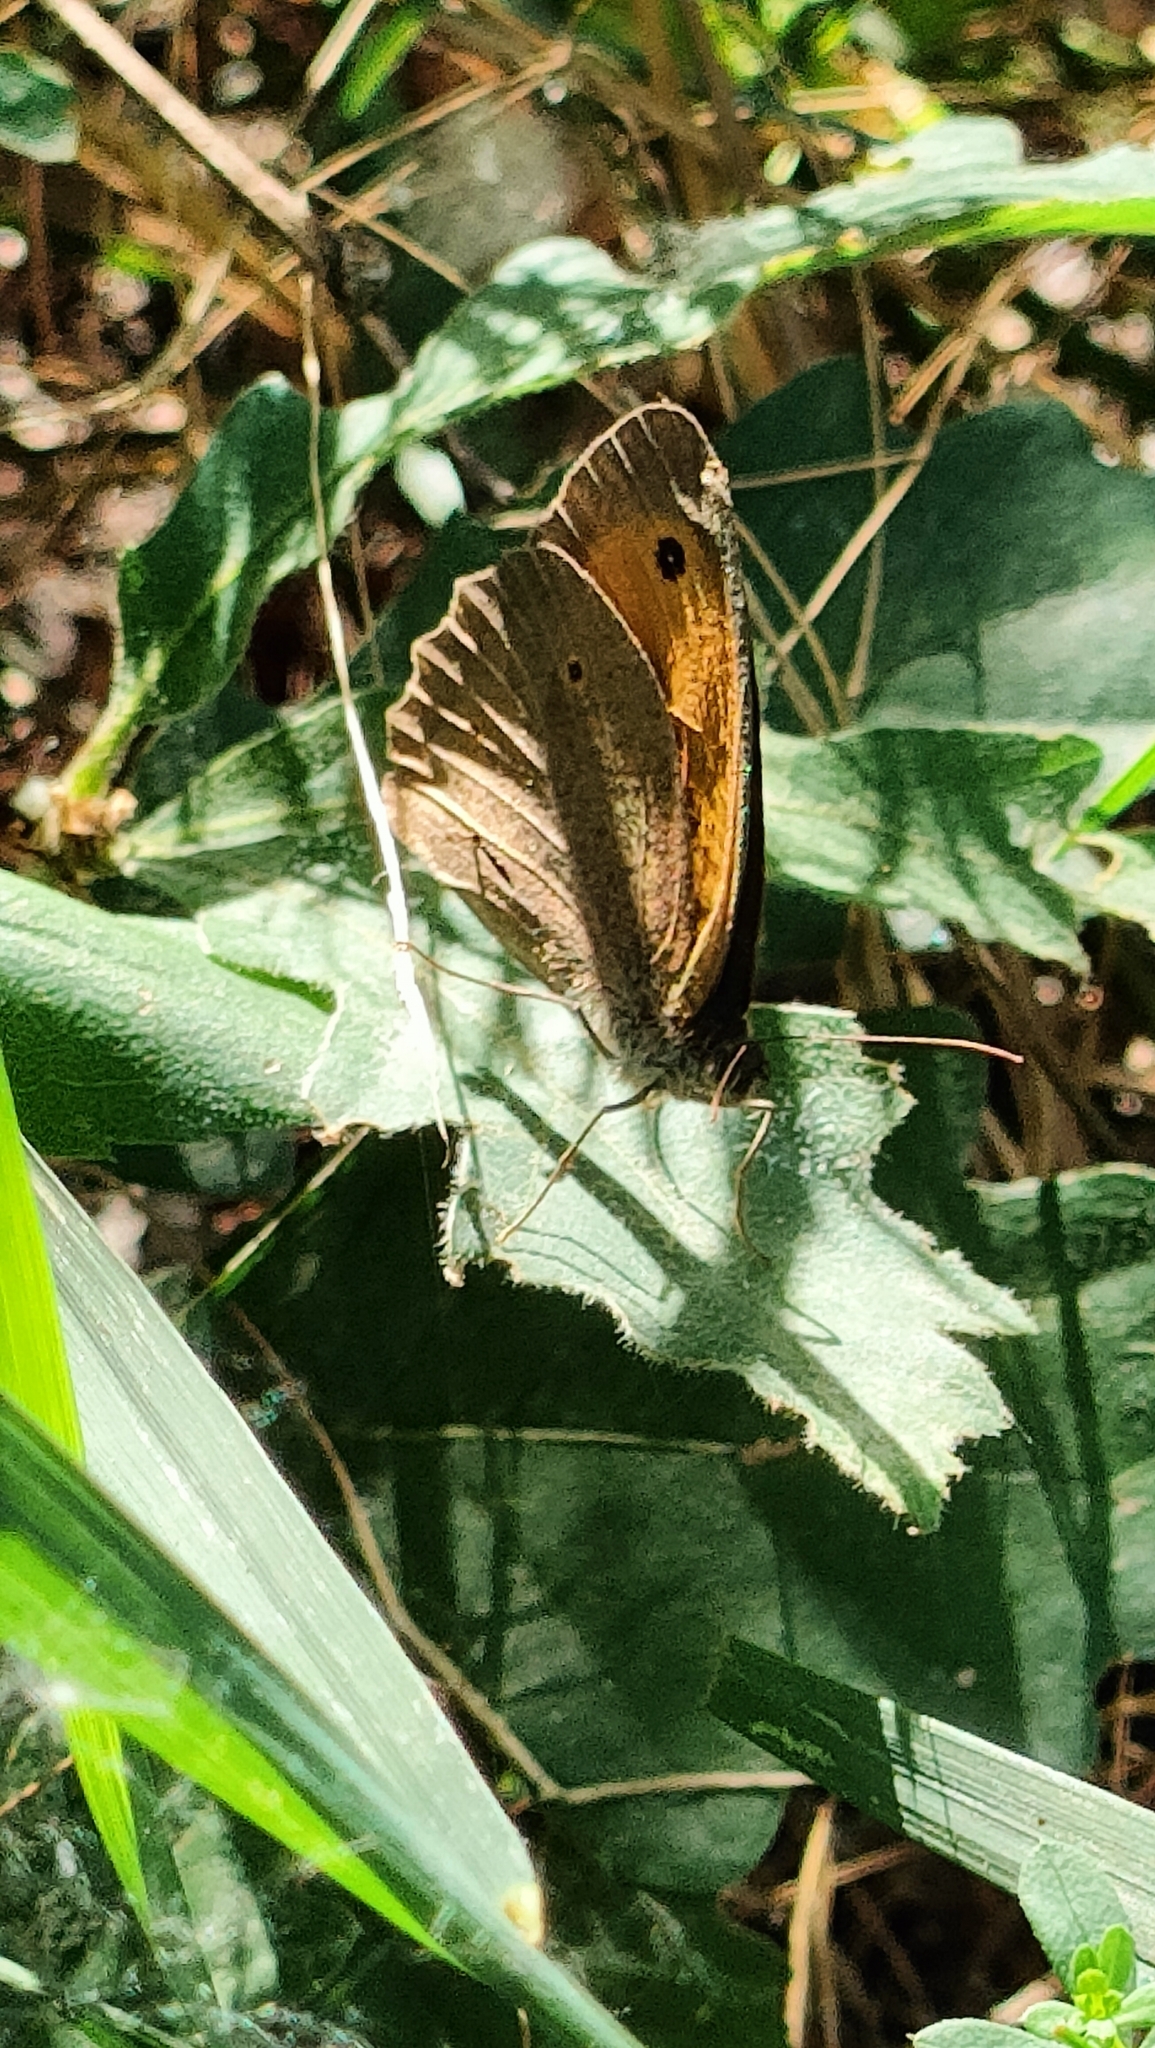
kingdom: Animalia
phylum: Arthropoda
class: Insecta
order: Lepidoptera
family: Nymphalidae
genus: Maniola
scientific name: Maniola jurtina
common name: Meadow brown
